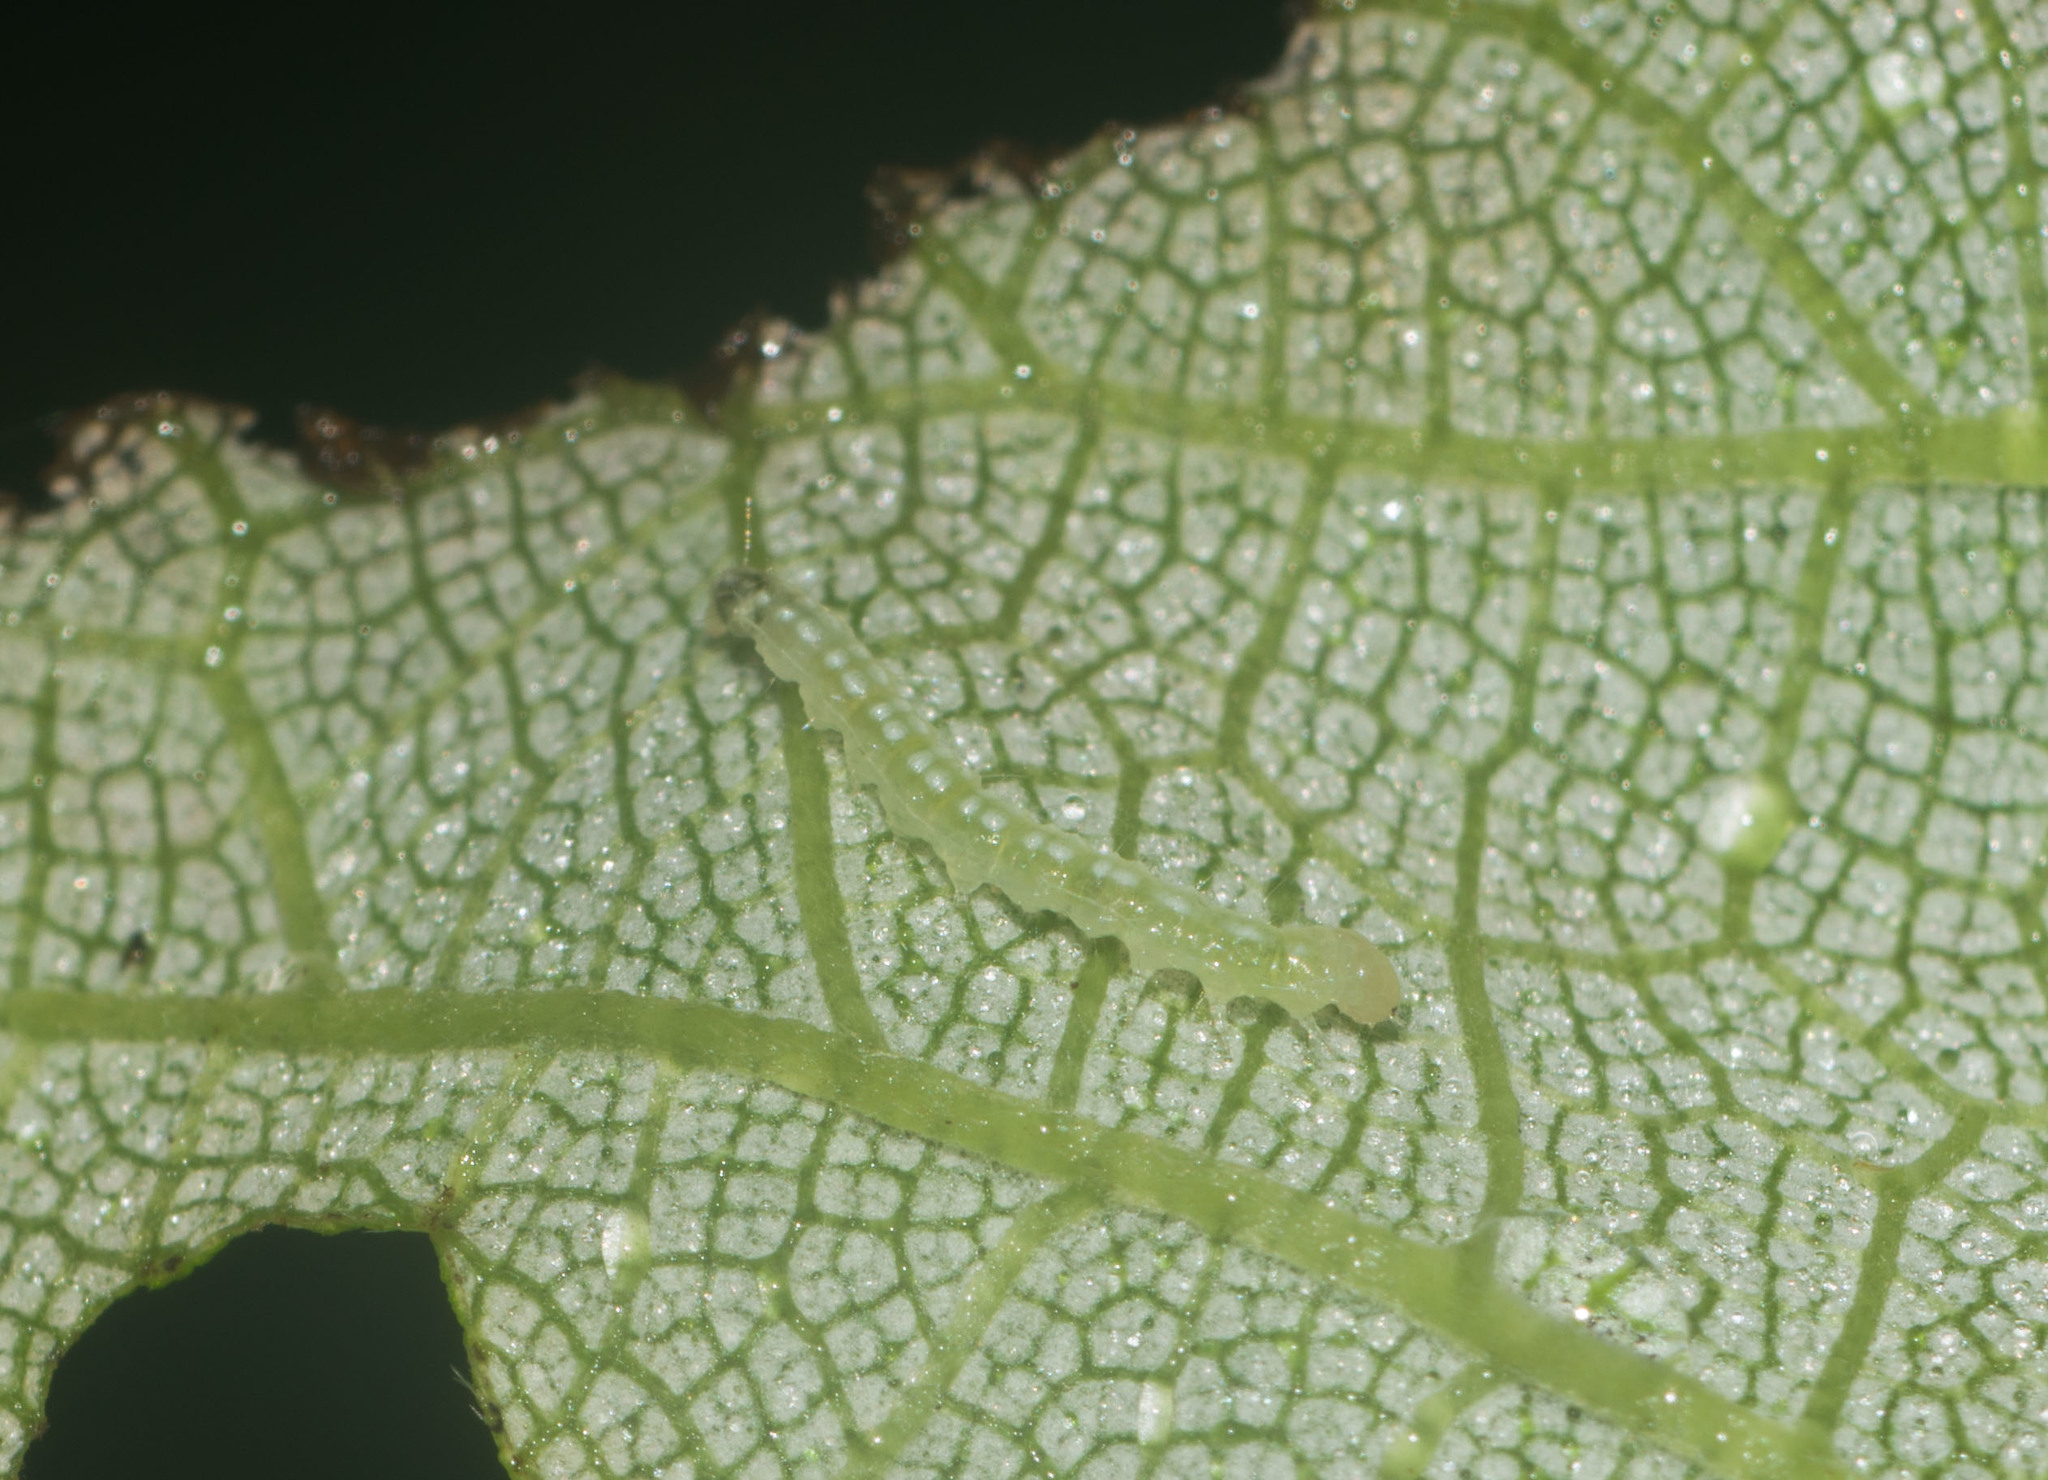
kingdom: Animalia
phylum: Arthropoda
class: Insecta
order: Lepidoptera
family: Crambidae
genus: Udea
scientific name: Udea stellata
